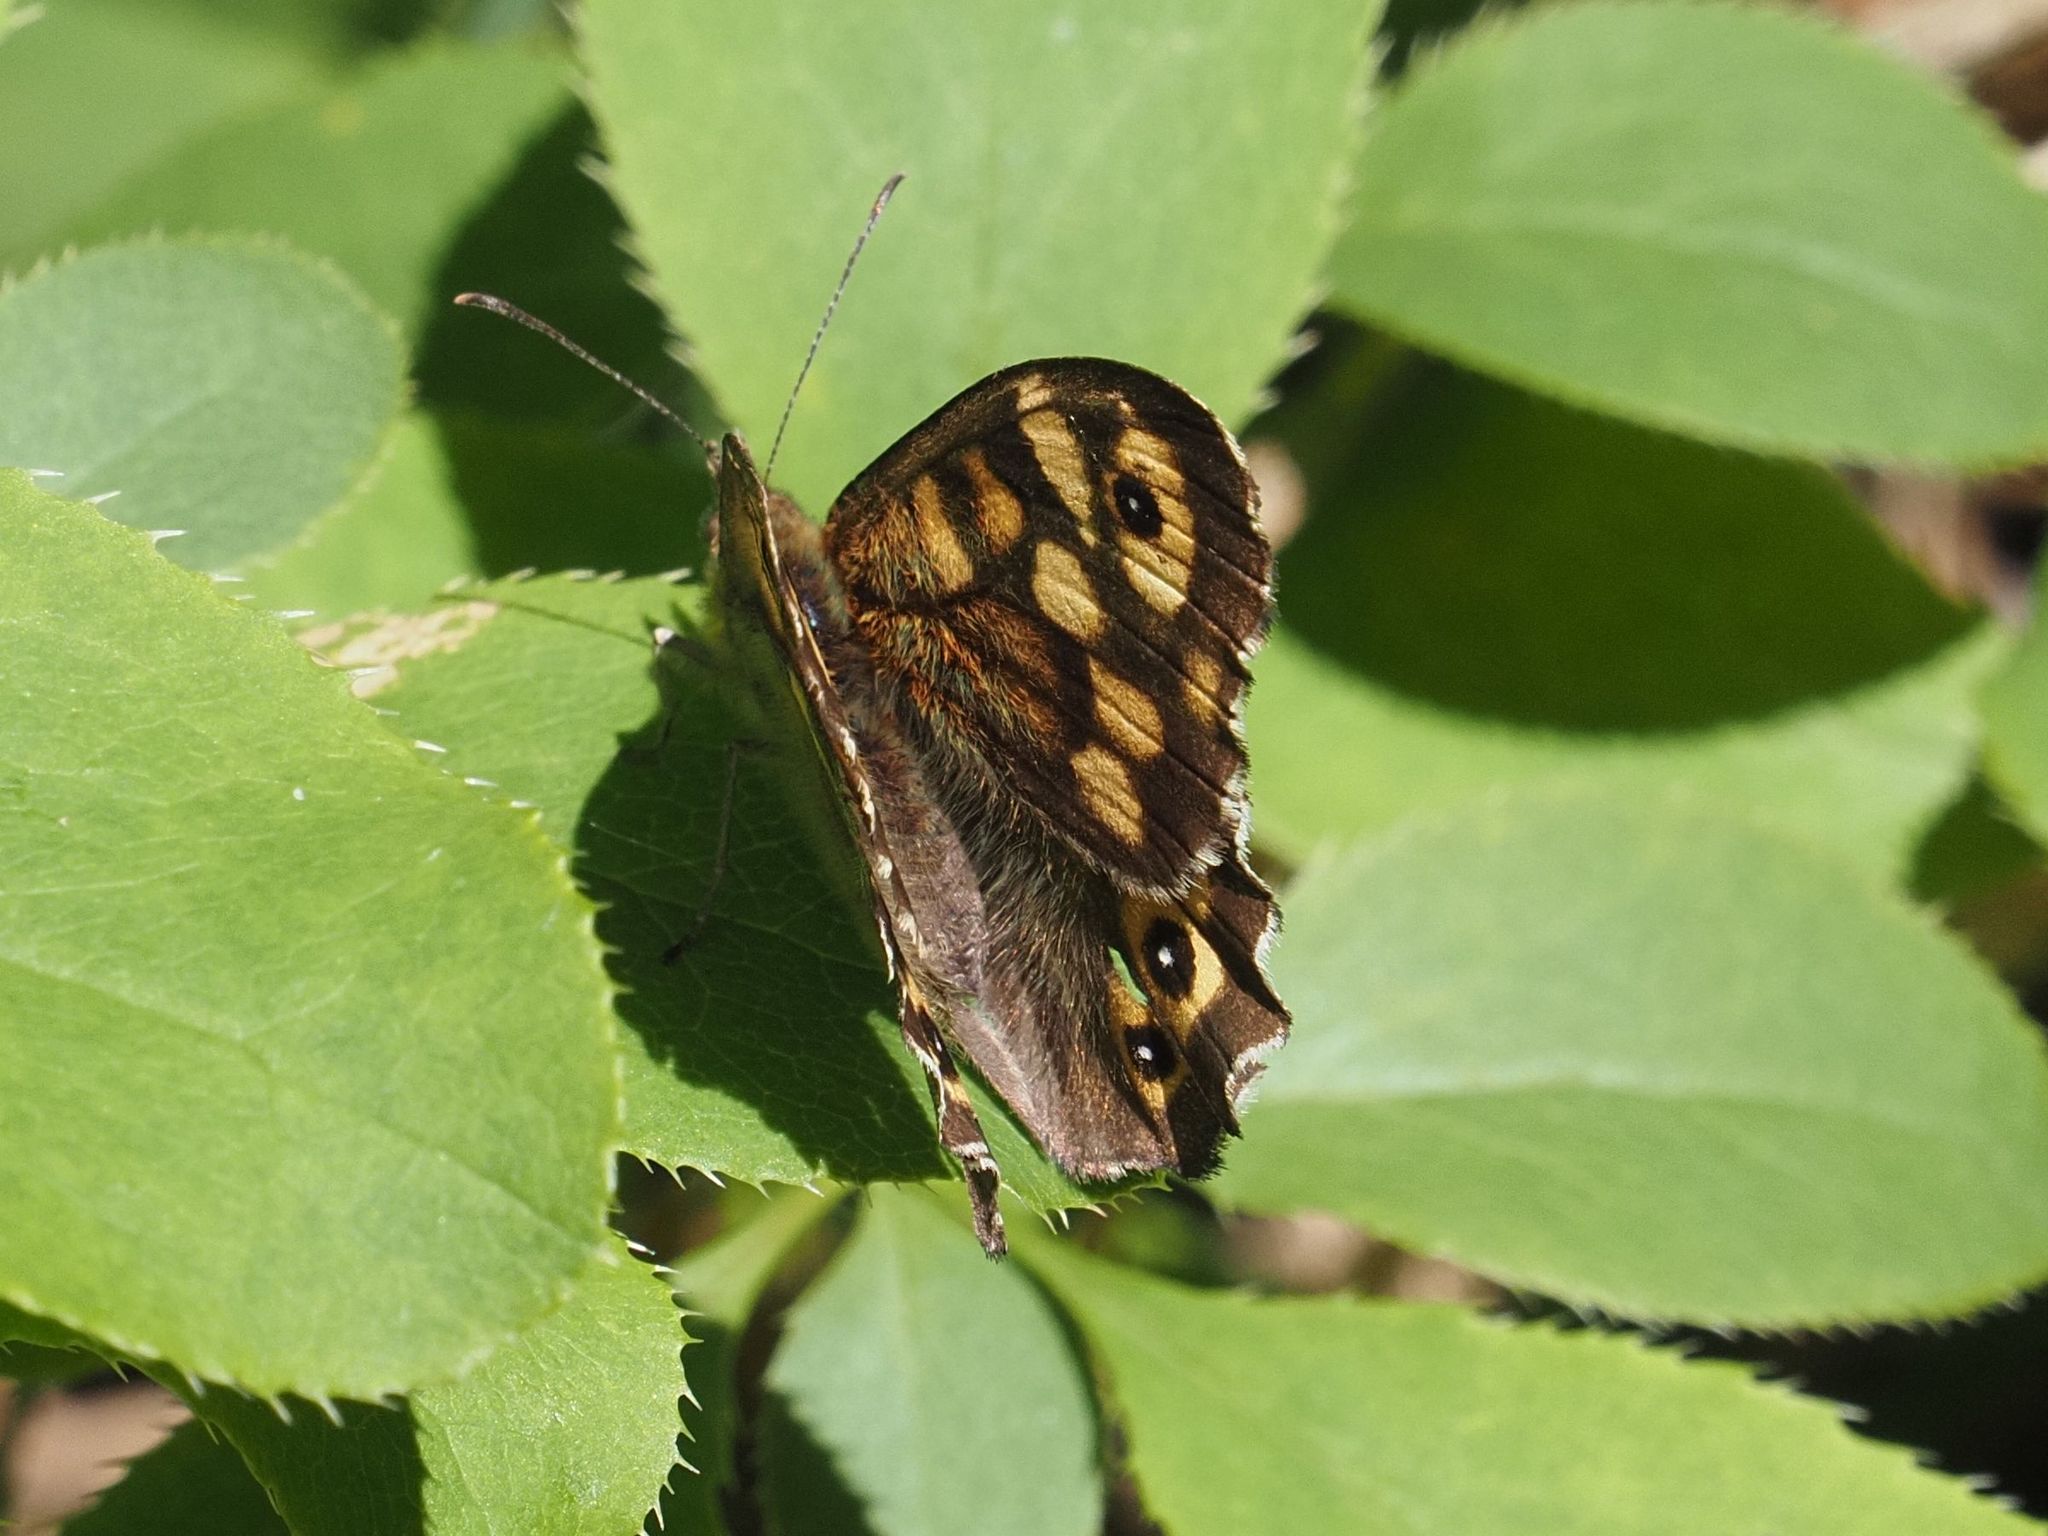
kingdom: Animalia
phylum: Arthropoda
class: Insecta
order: Lepidoptera
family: Nymphalidae
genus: Pararge
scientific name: Pararge aegeria
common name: Speckled wood
